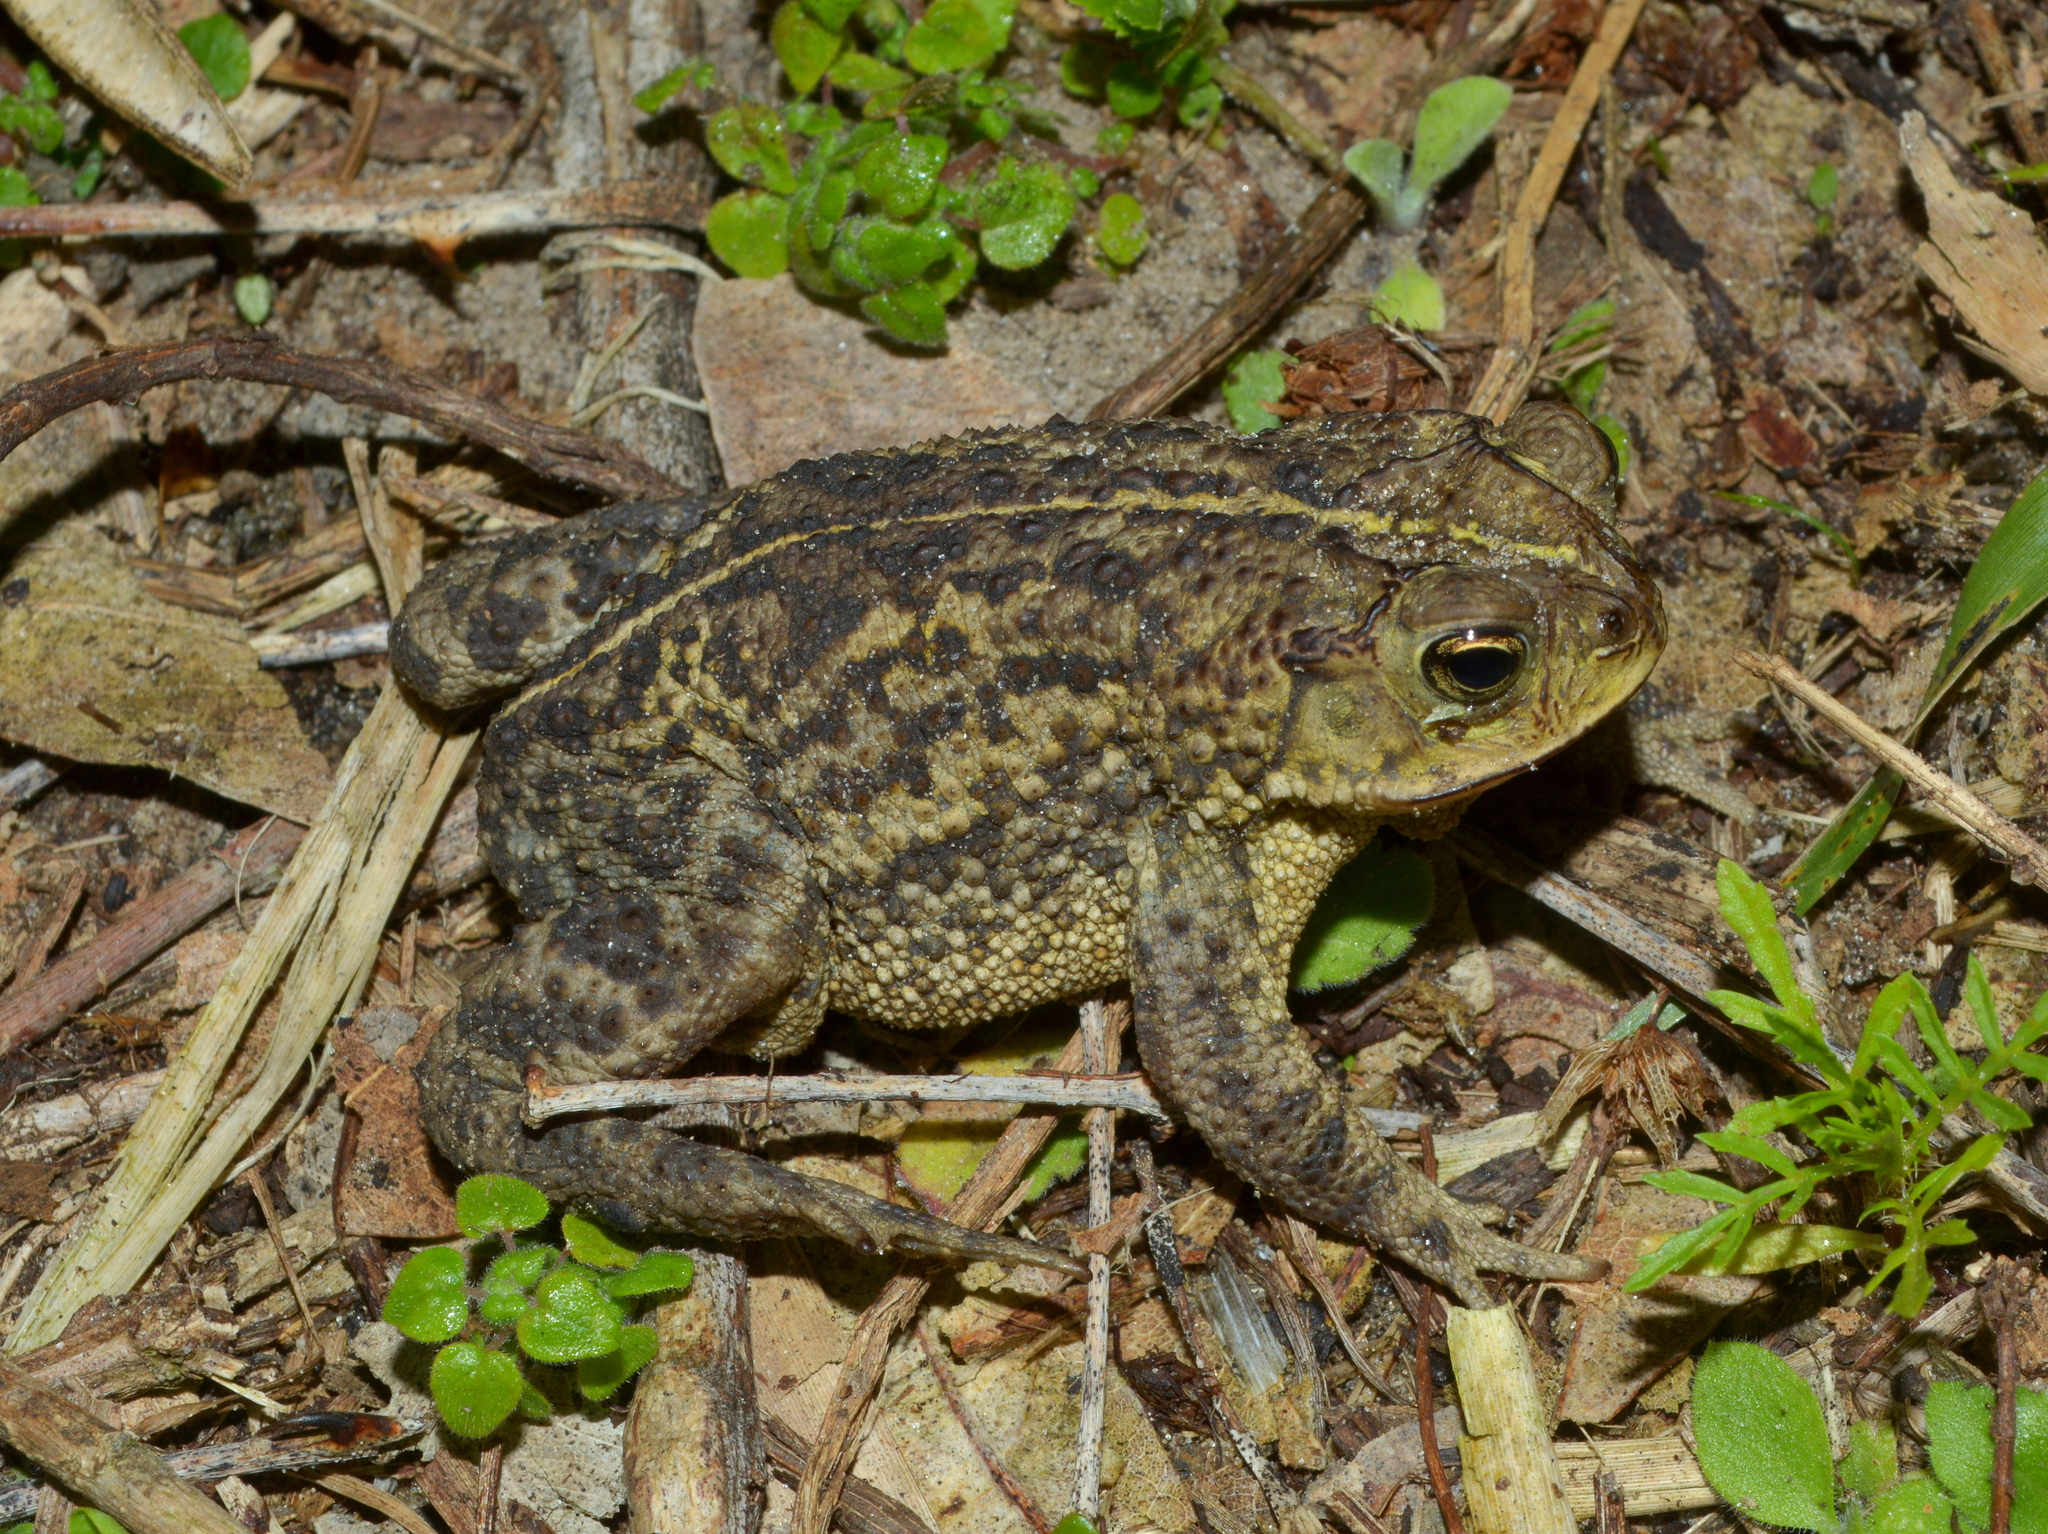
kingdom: Animalia
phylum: Chordata
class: Amphibia
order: Anura
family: Bufonidae
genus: Rhinella
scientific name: Rhinella dorbignyi
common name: D´orbigny’s toad
